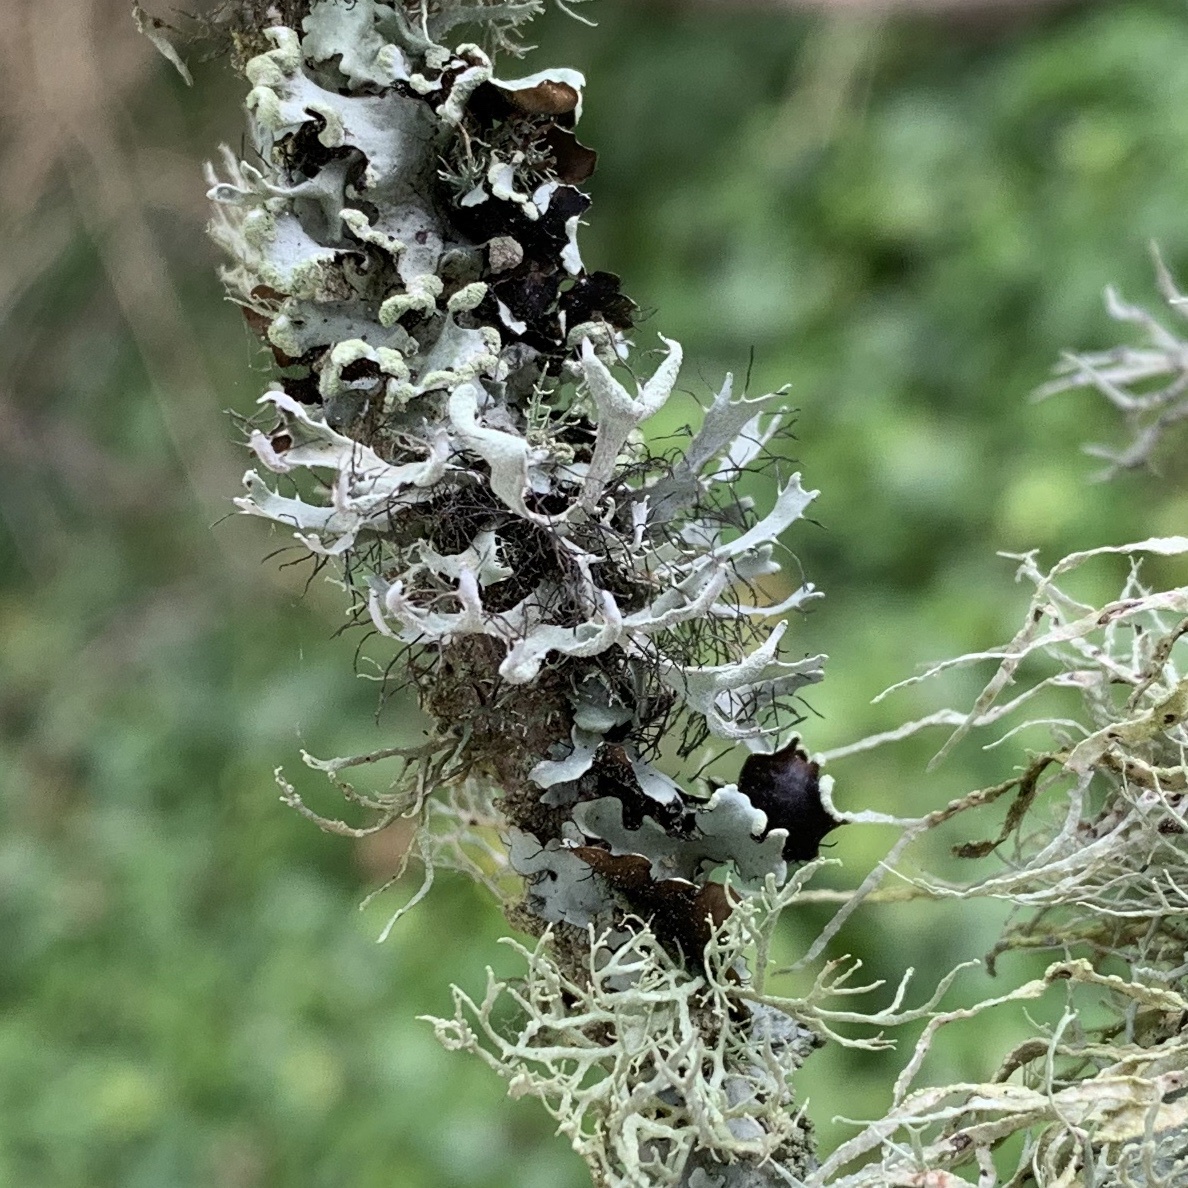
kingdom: Fungi
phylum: Ascomycota
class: Lecanoromycetes
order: Caliciales
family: Physciaceae
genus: Leucodermia
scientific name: Leucodermia leucomelos
